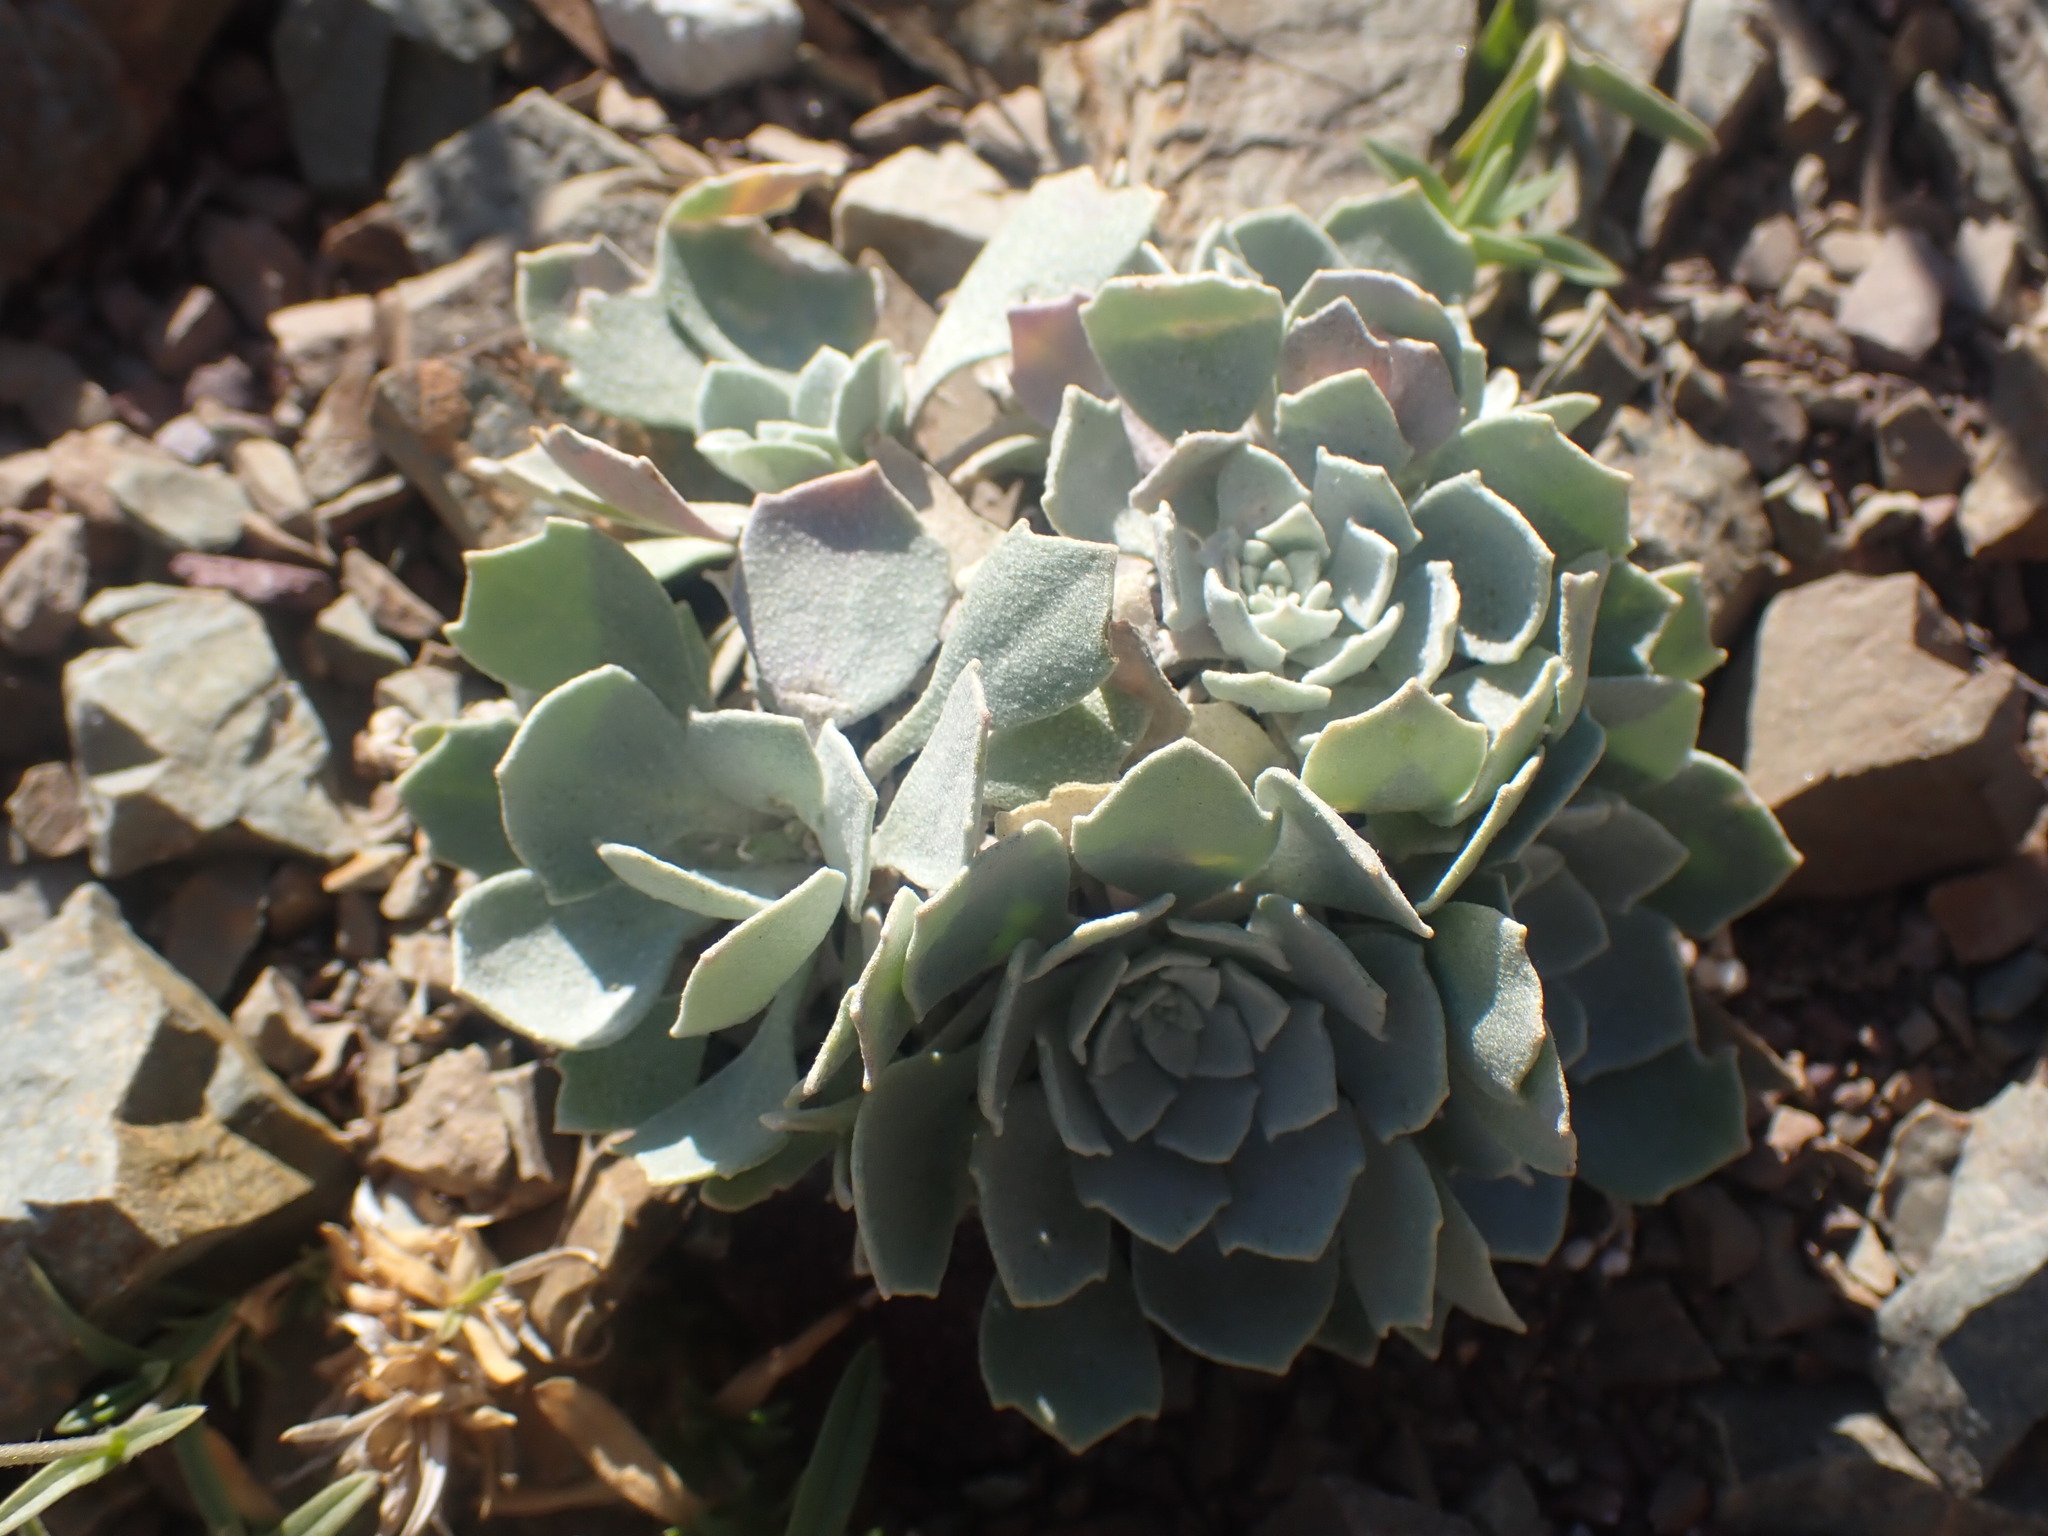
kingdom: Plantae
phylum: Tracheophyta
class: Magnoliopsida
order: Brassicales
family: Brassicaceae
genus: Physaria
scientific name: Physaria didymocarpa
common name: Common twinpod
